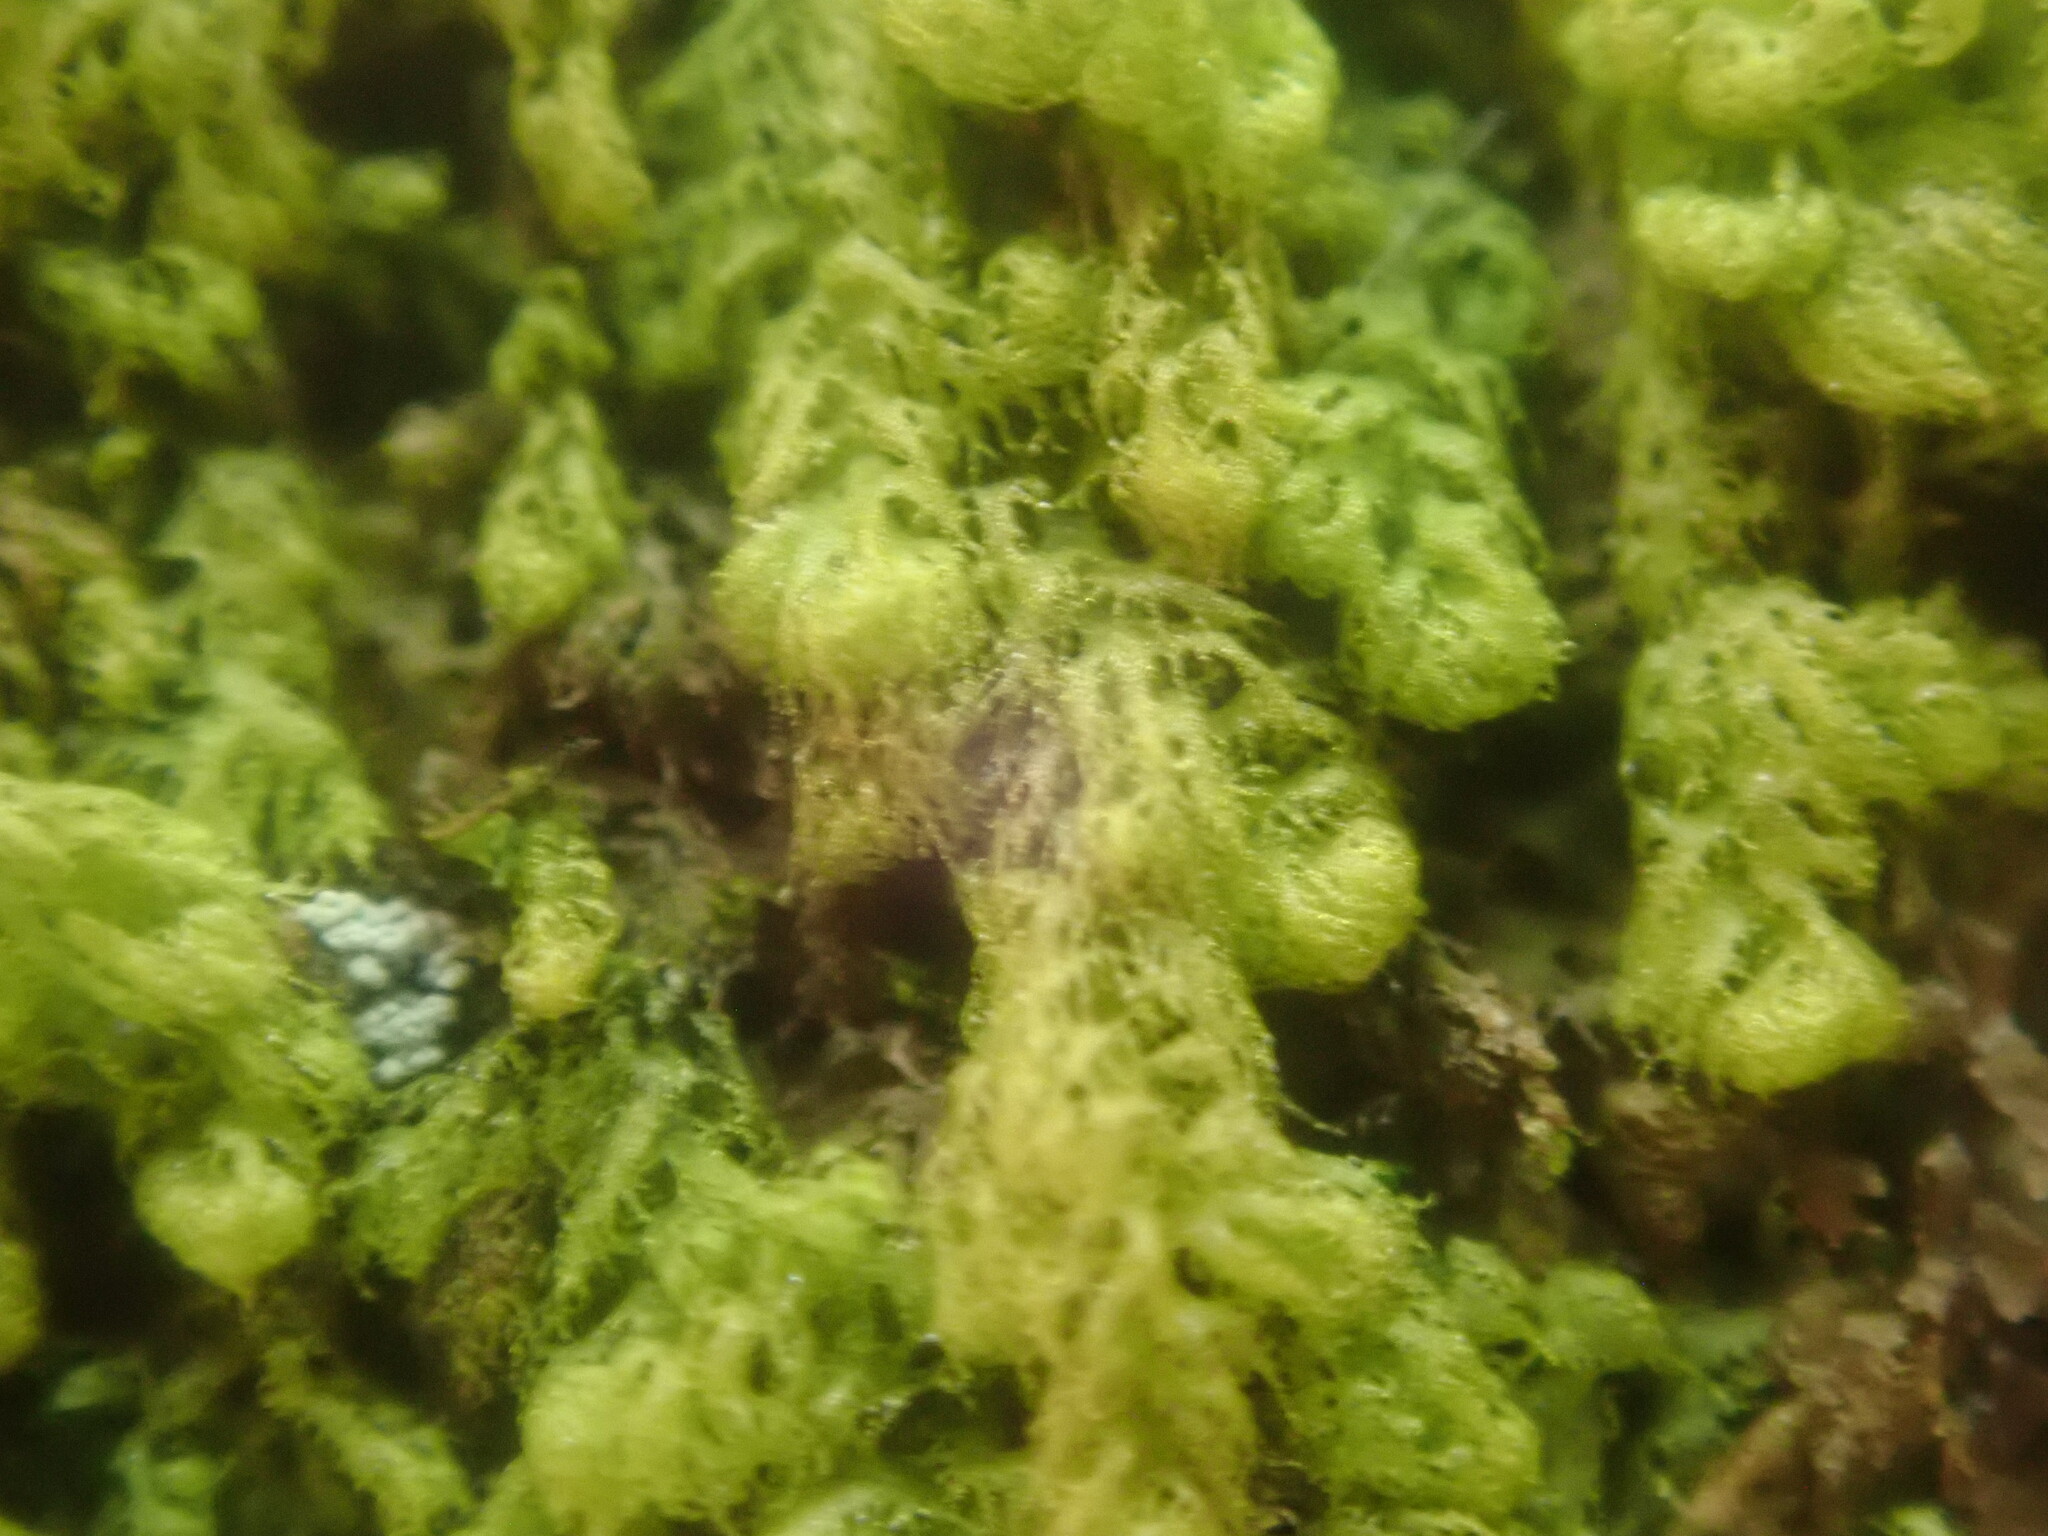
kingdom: Plantae
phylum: Marchantiophyta
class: Jungermanniopsida
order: Ptilidiales
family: Ptilidiaceae
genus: Ptilidium
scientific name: Ptilidium pulcherrimum
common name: Tree fringewort
